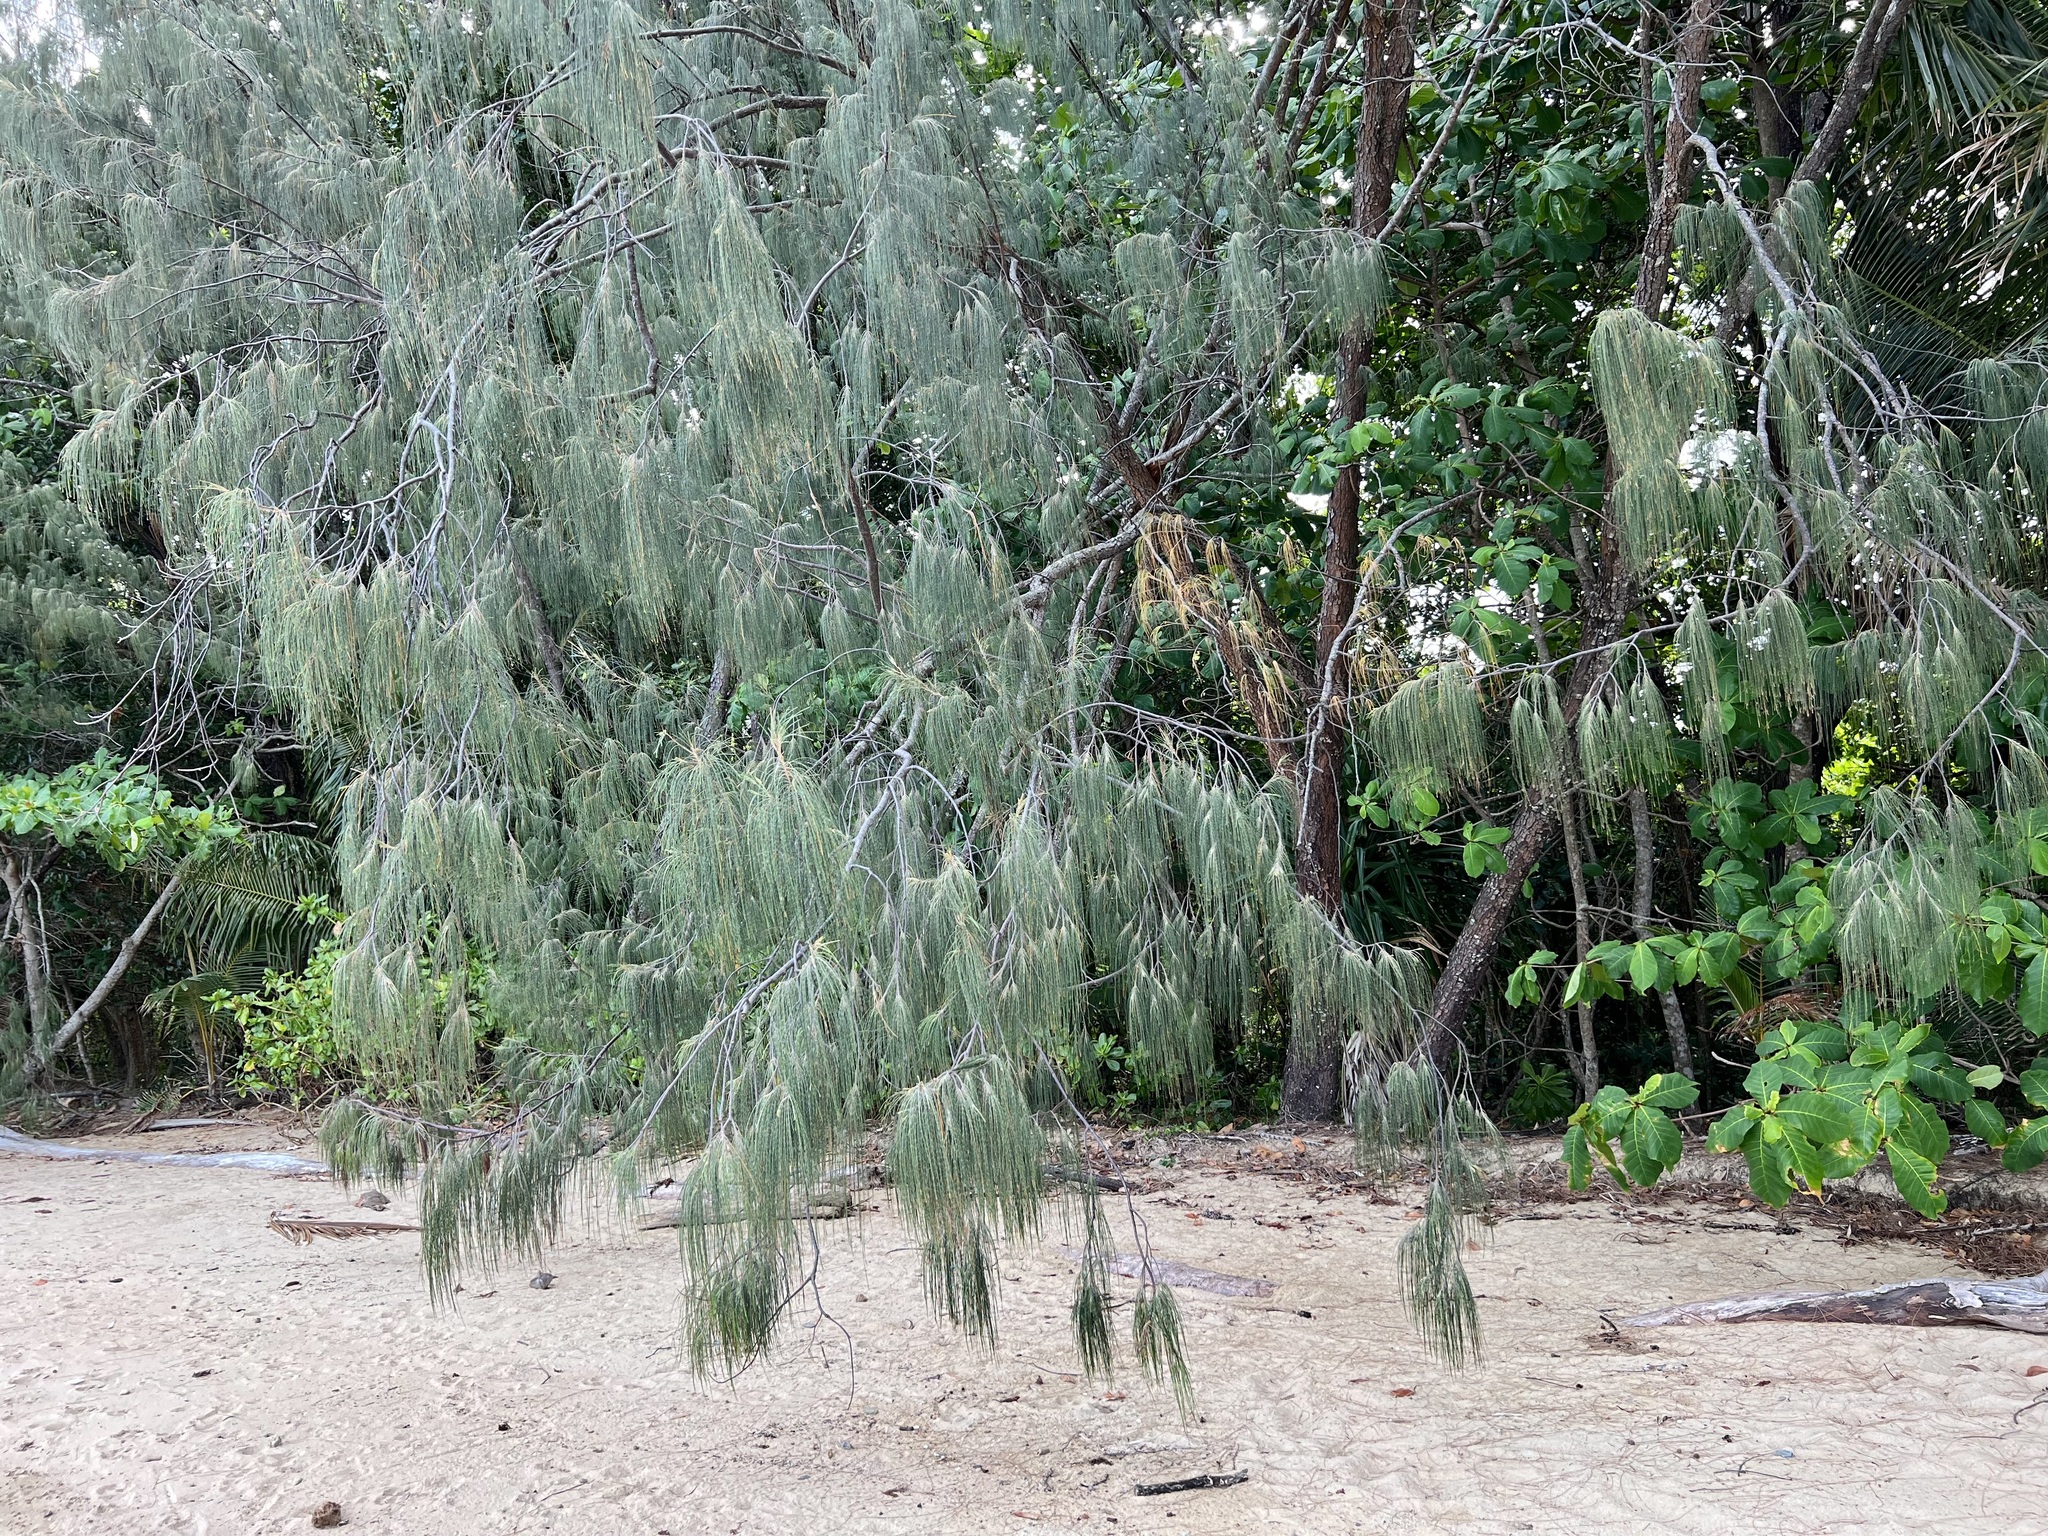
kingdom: Plantae
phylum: Tracheophyta
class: Magnoliopsida
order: Fagales
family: Casuarinaceae
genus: Casuarina
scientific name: Casuarina equisetifolia
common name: Beach sheoak
